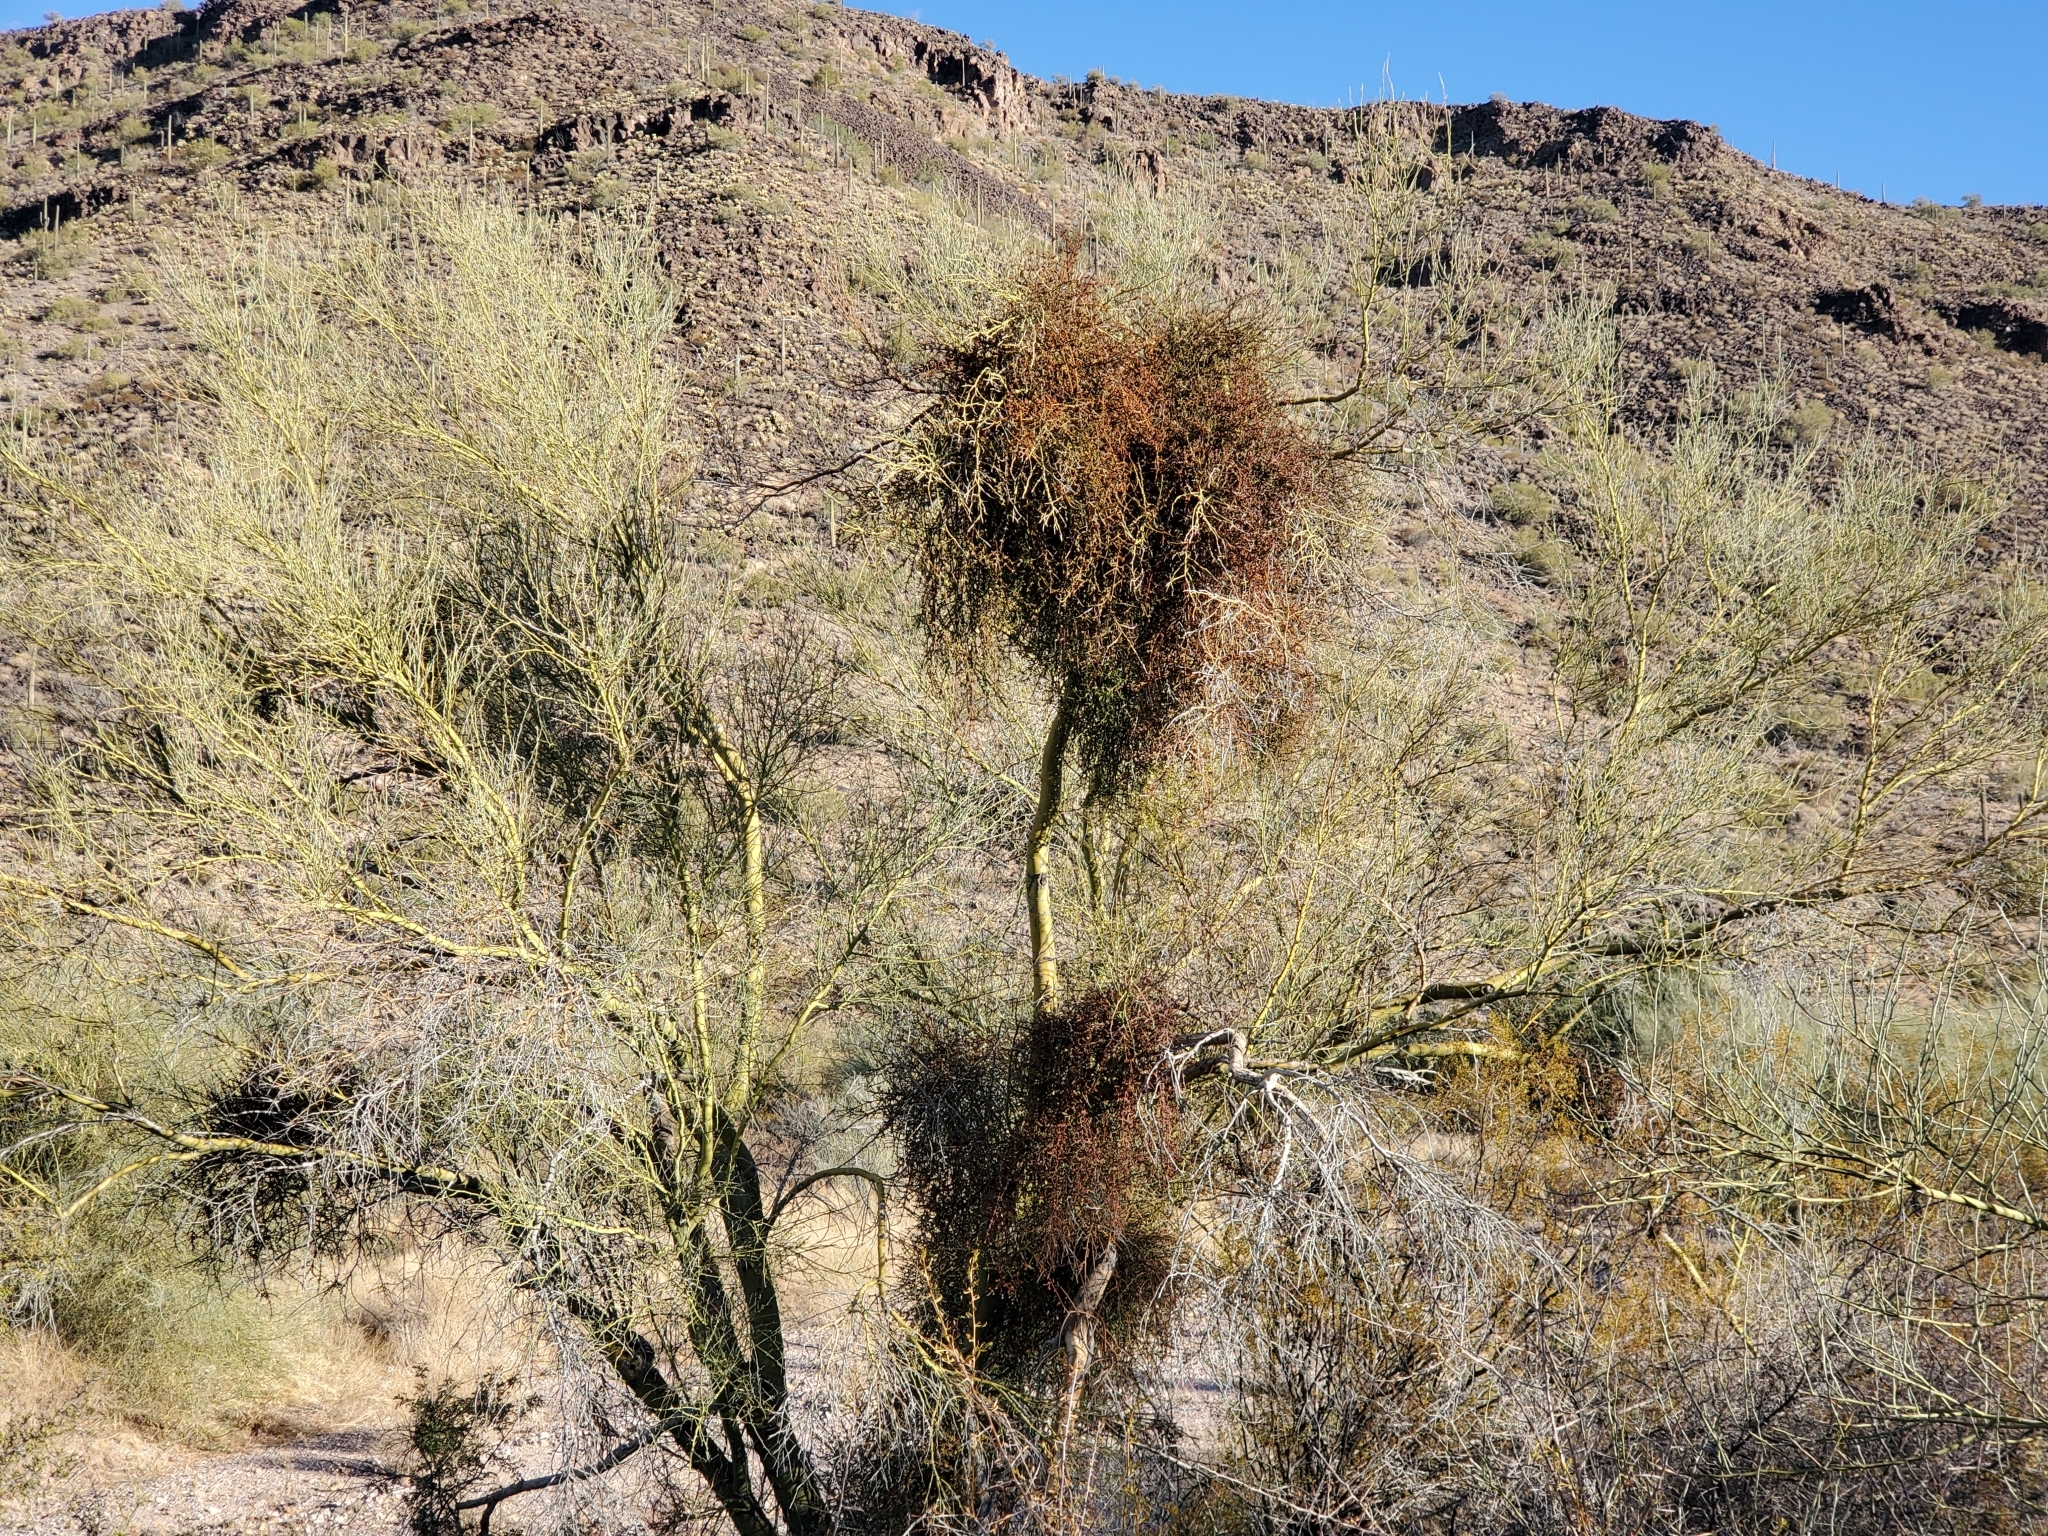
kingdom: Plantae
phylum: Tracheophyta
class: Magnoliopsida
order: Santalales
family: Viscaceae
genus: Phoradendron
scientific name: Phoradendron californicum
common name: Acacia mistletoe
